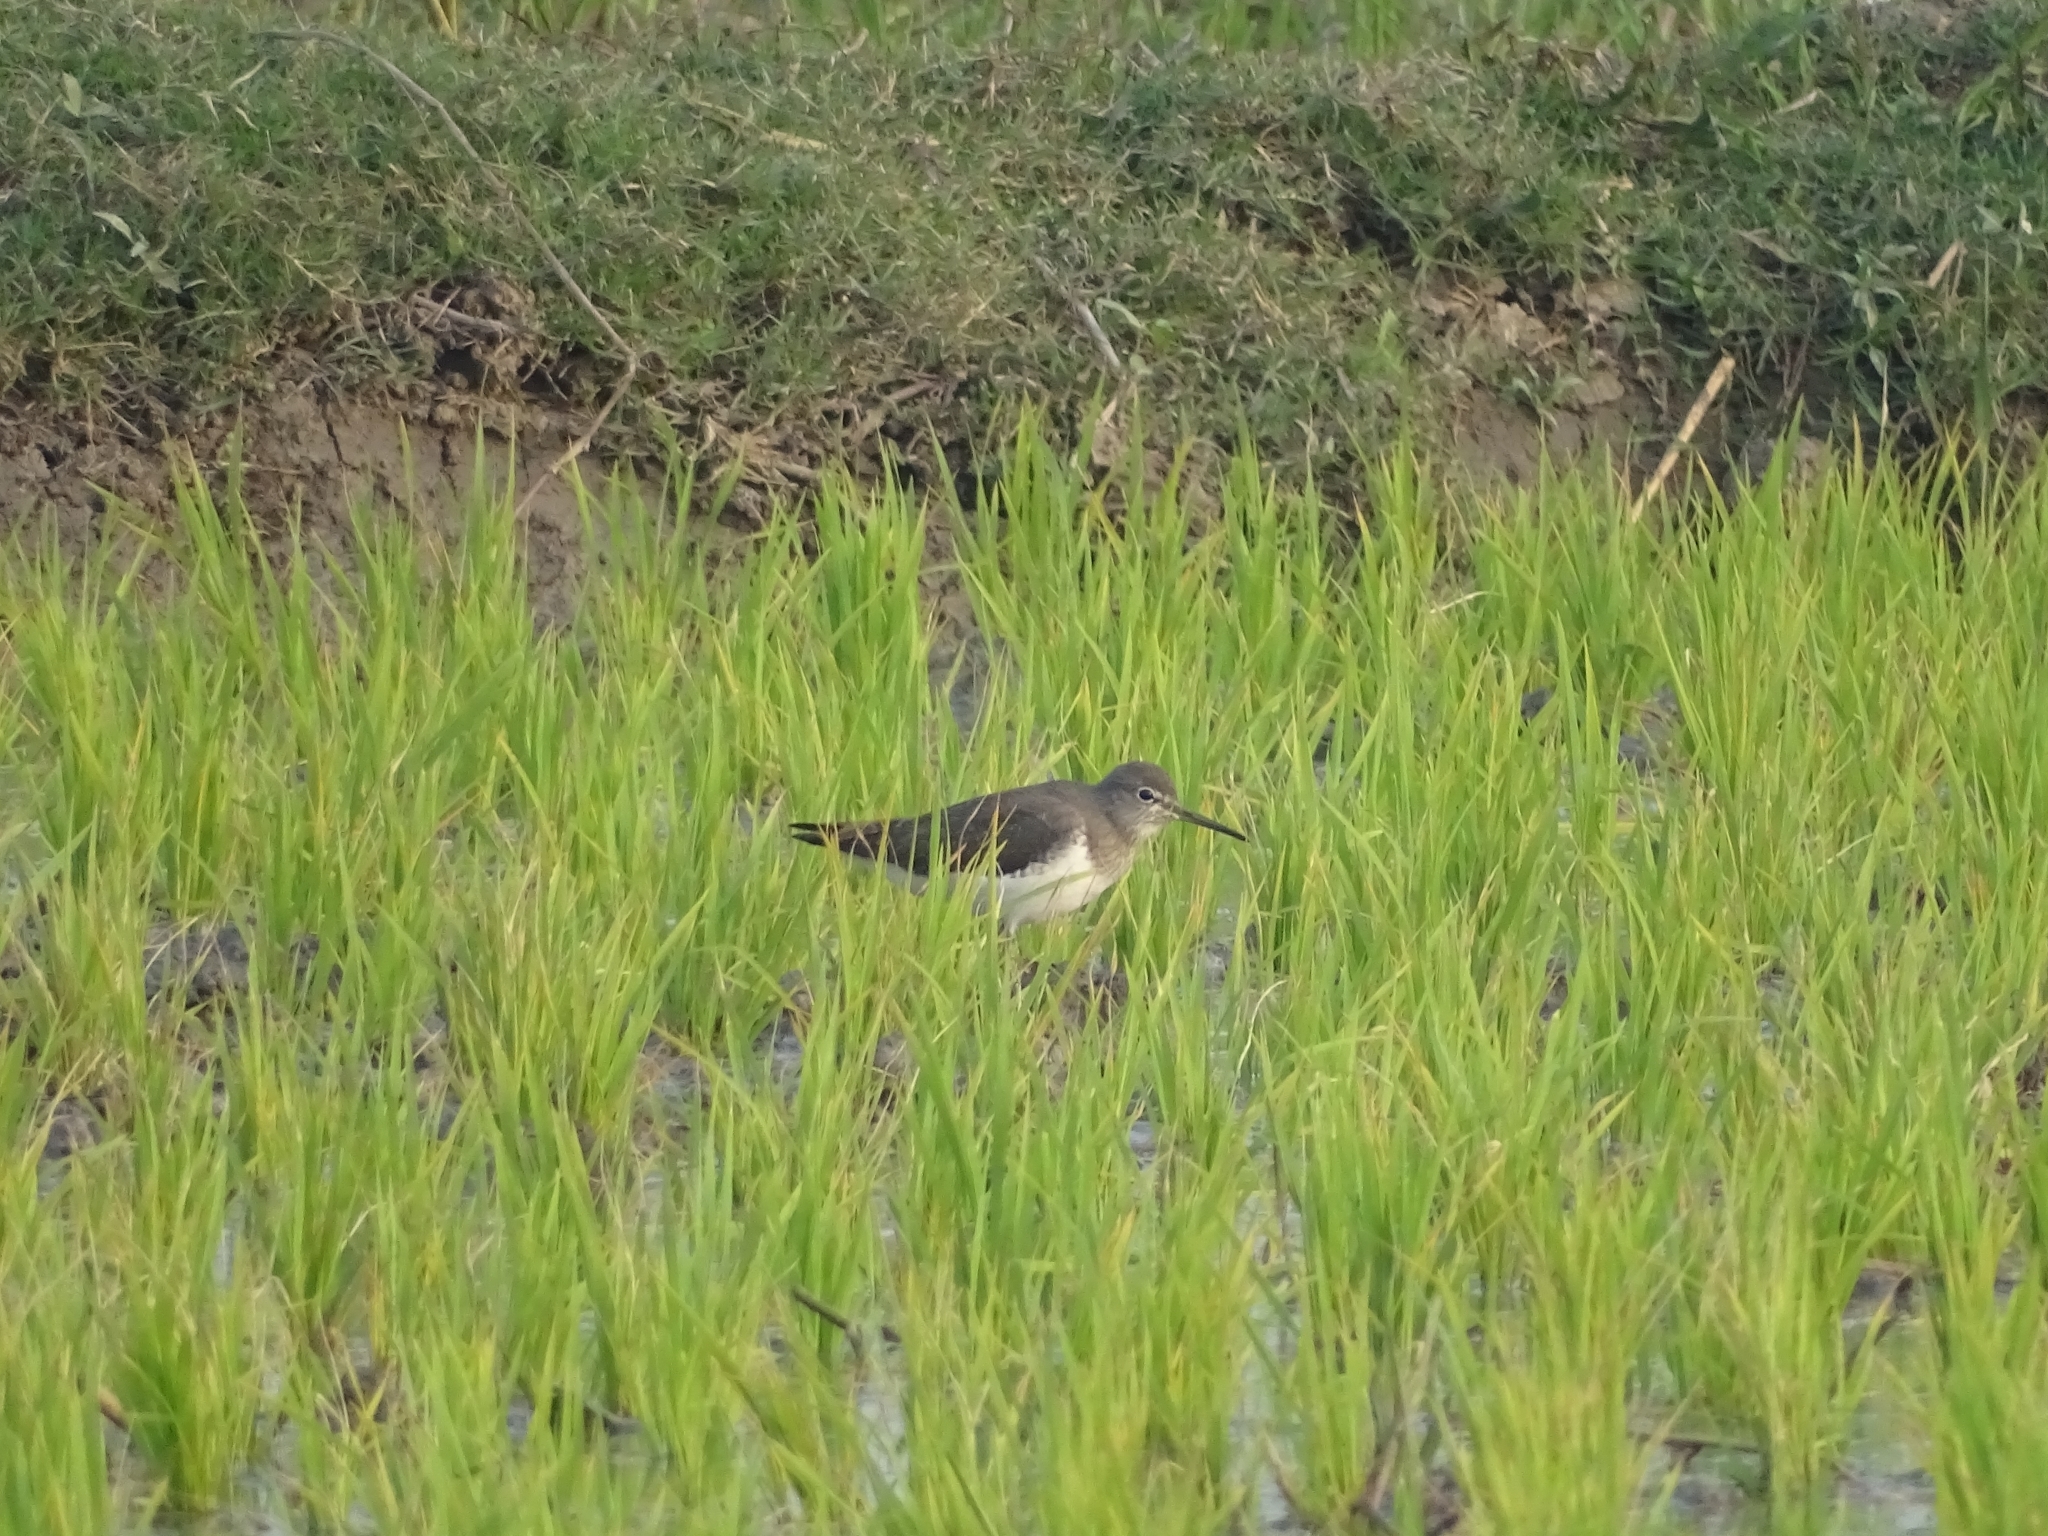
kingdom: Animalia
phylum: Chordata
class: Aves
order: Charadriiformes
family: Scolopacidae
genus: Tringa
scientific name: Tringa ochropus
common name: Green sandpiper
